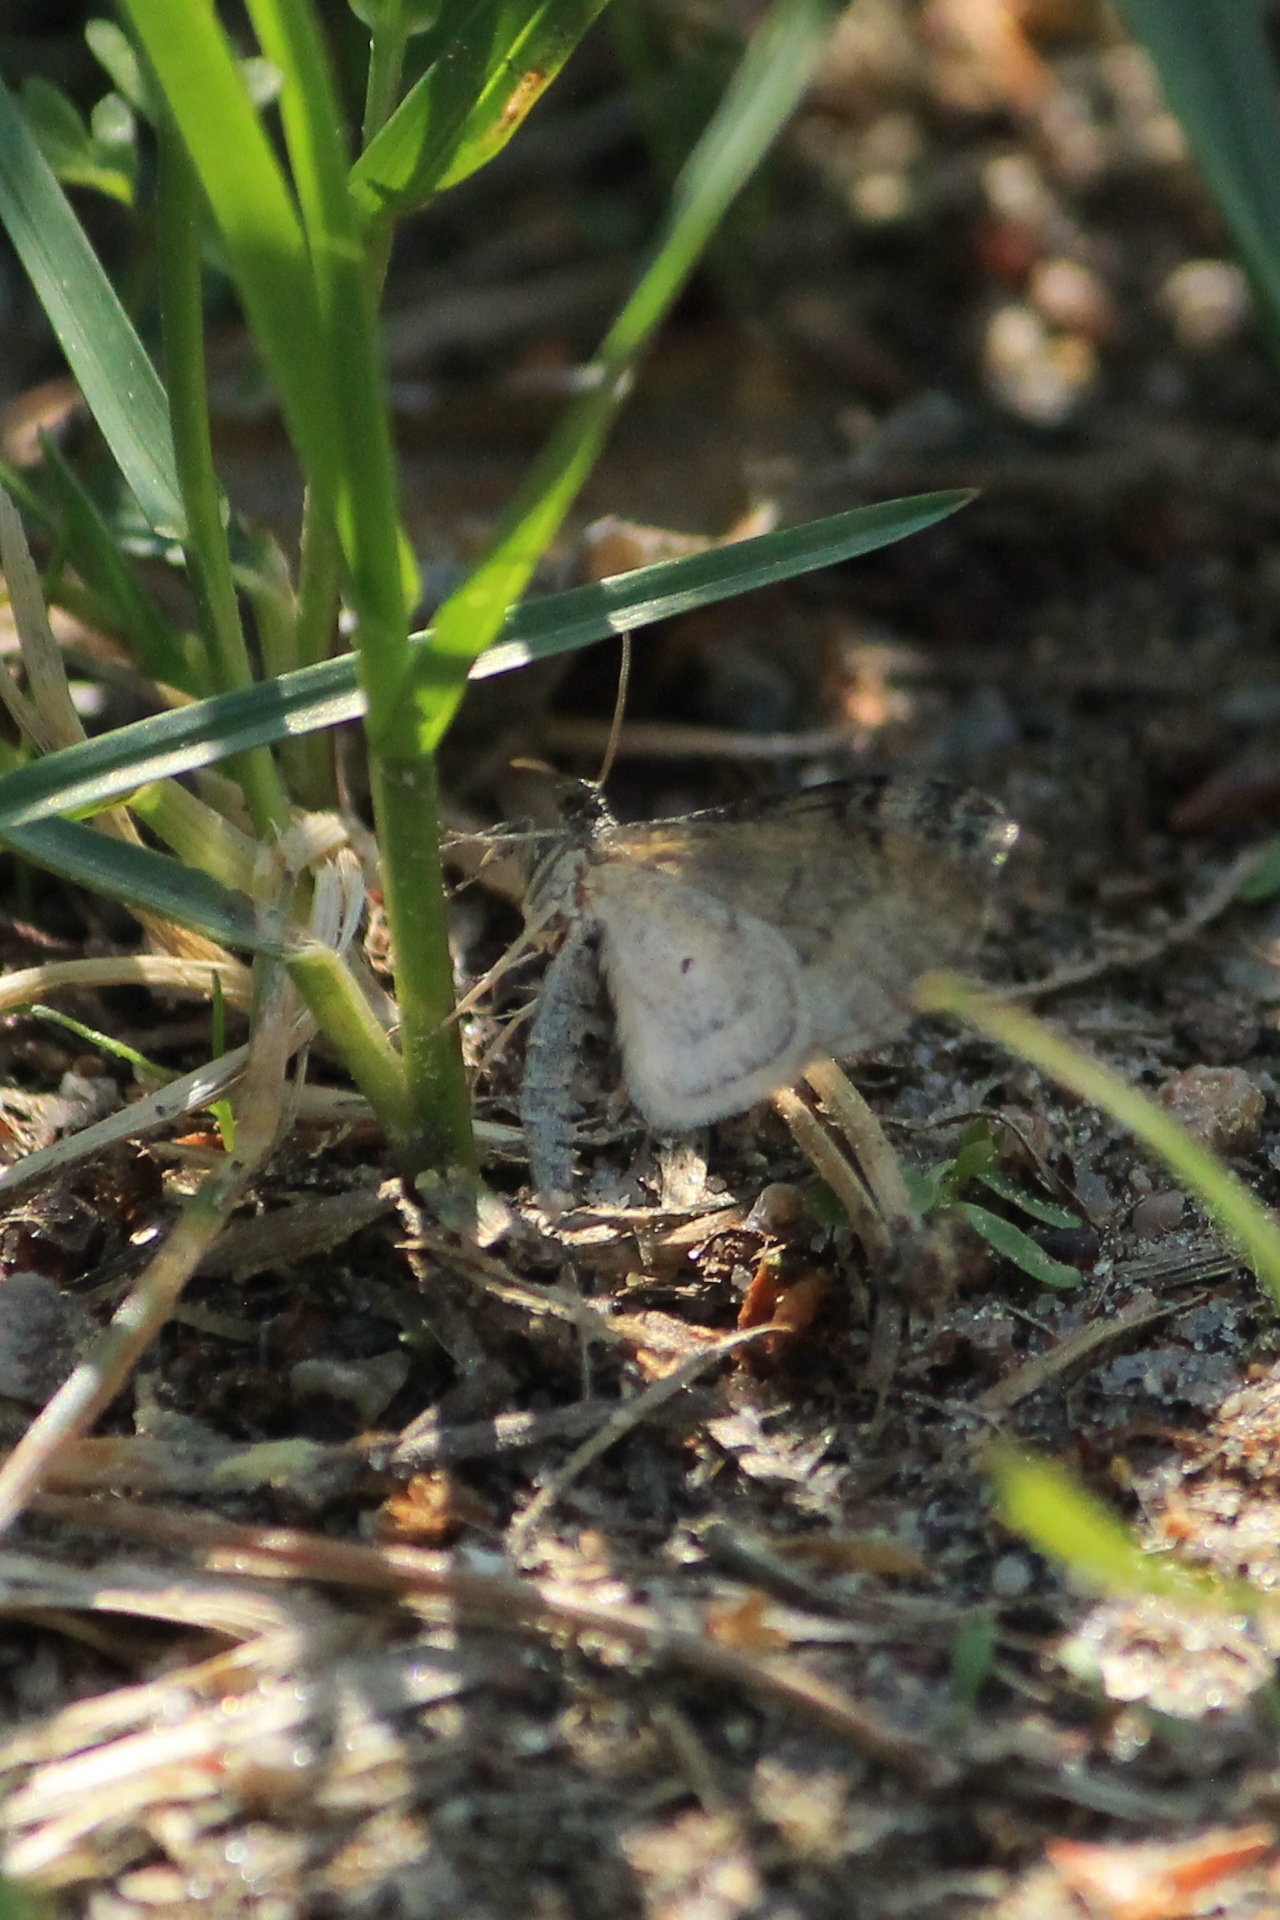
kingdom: Animalia
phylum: Arthropoda
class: Insecta
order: Lepidoptera
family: Geometridae
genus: Lobophora
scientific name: Lobophora halterata
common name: Seraphim
